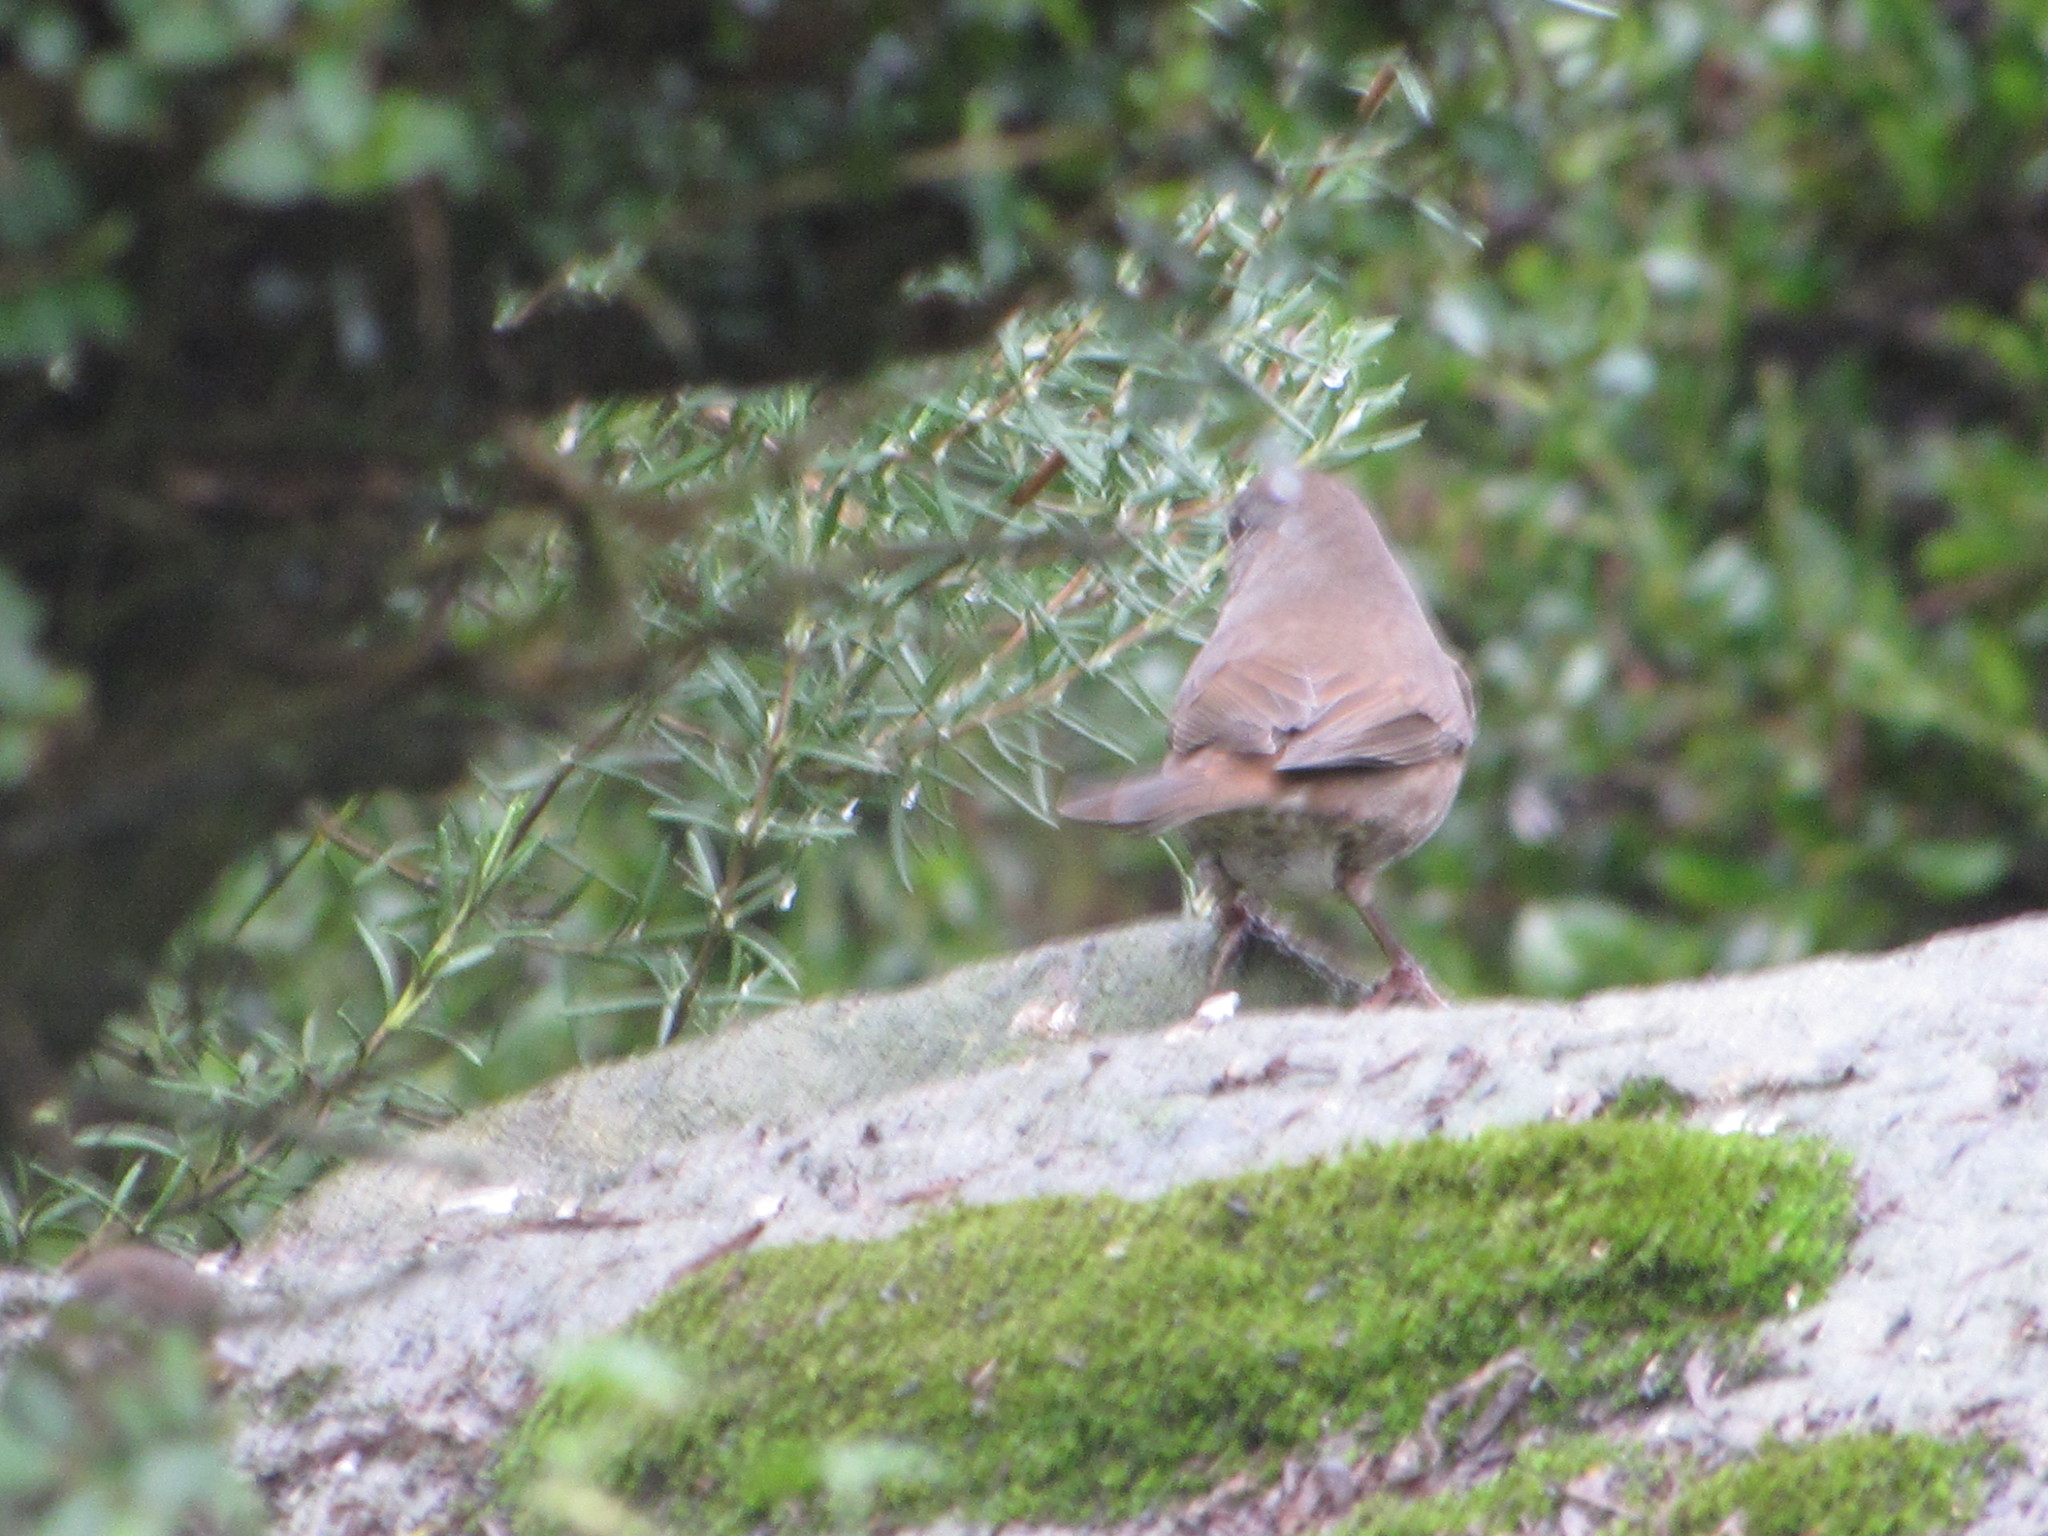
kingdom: Animalia
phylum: Chordata
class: Aves
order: Passeriformes
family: Passerellidae
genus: Passerella
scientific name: Passerella iliaca
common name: Fox sparrow
